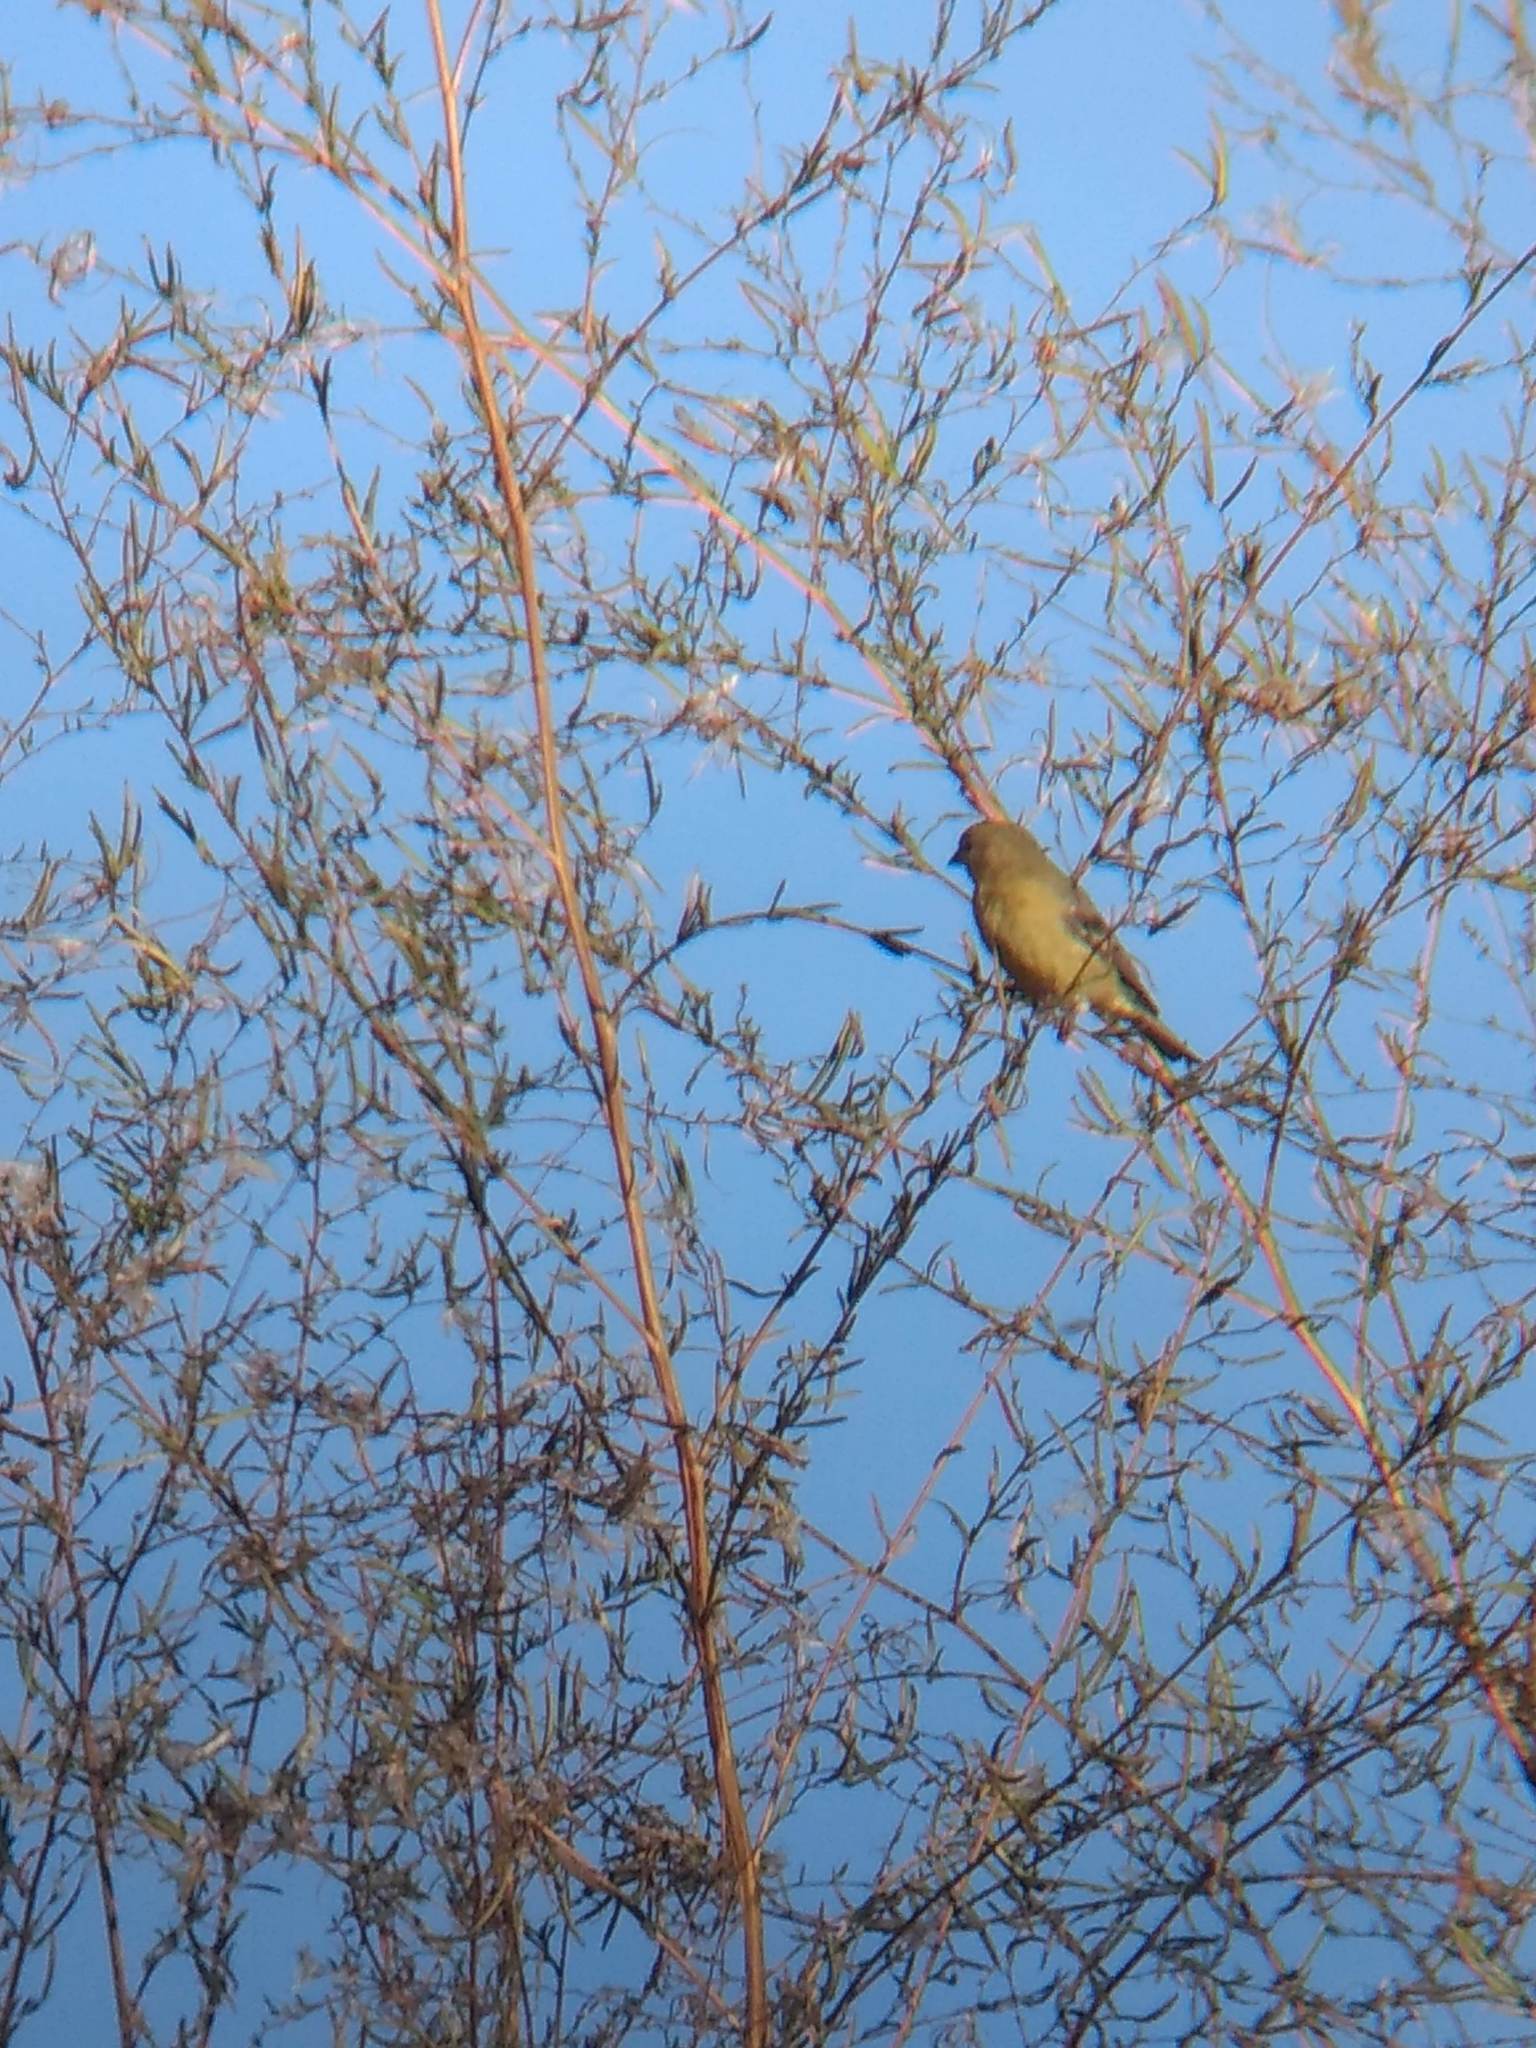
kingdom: Animalia
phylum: Chordata
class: Aves
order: Passeriformes
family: Fringillidae
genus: Spinus
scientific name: Spinus psaltria
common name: Lesser goldfinch
